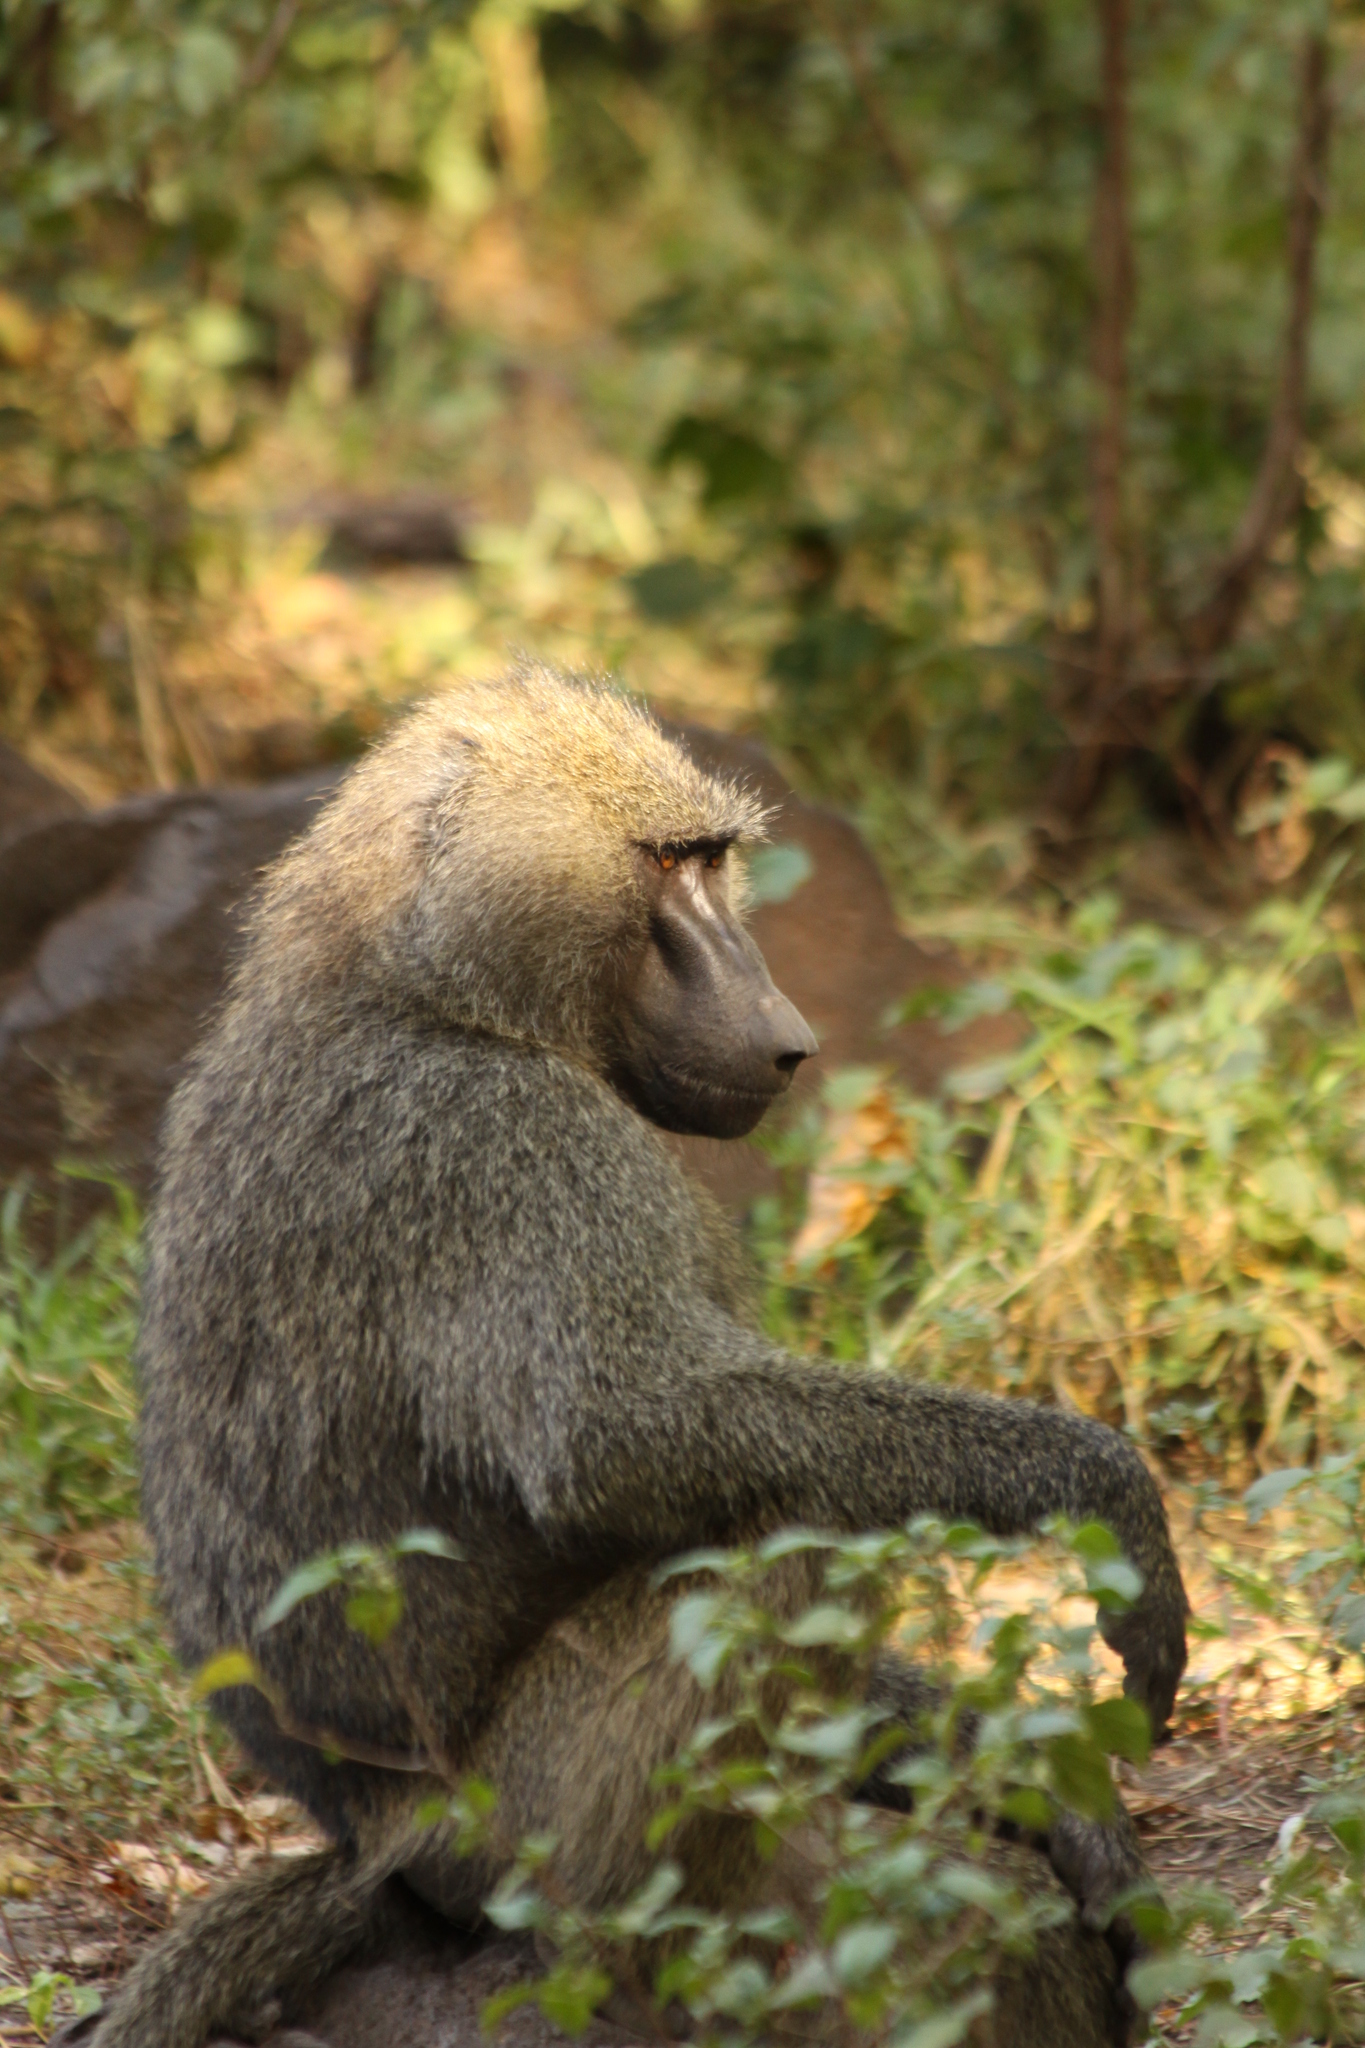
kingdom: Animalia
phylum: Chordata
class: Mammalia
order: Primates
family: Cercopithecidae
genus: Papio
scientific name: Papio anubis
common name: Olive baboon
